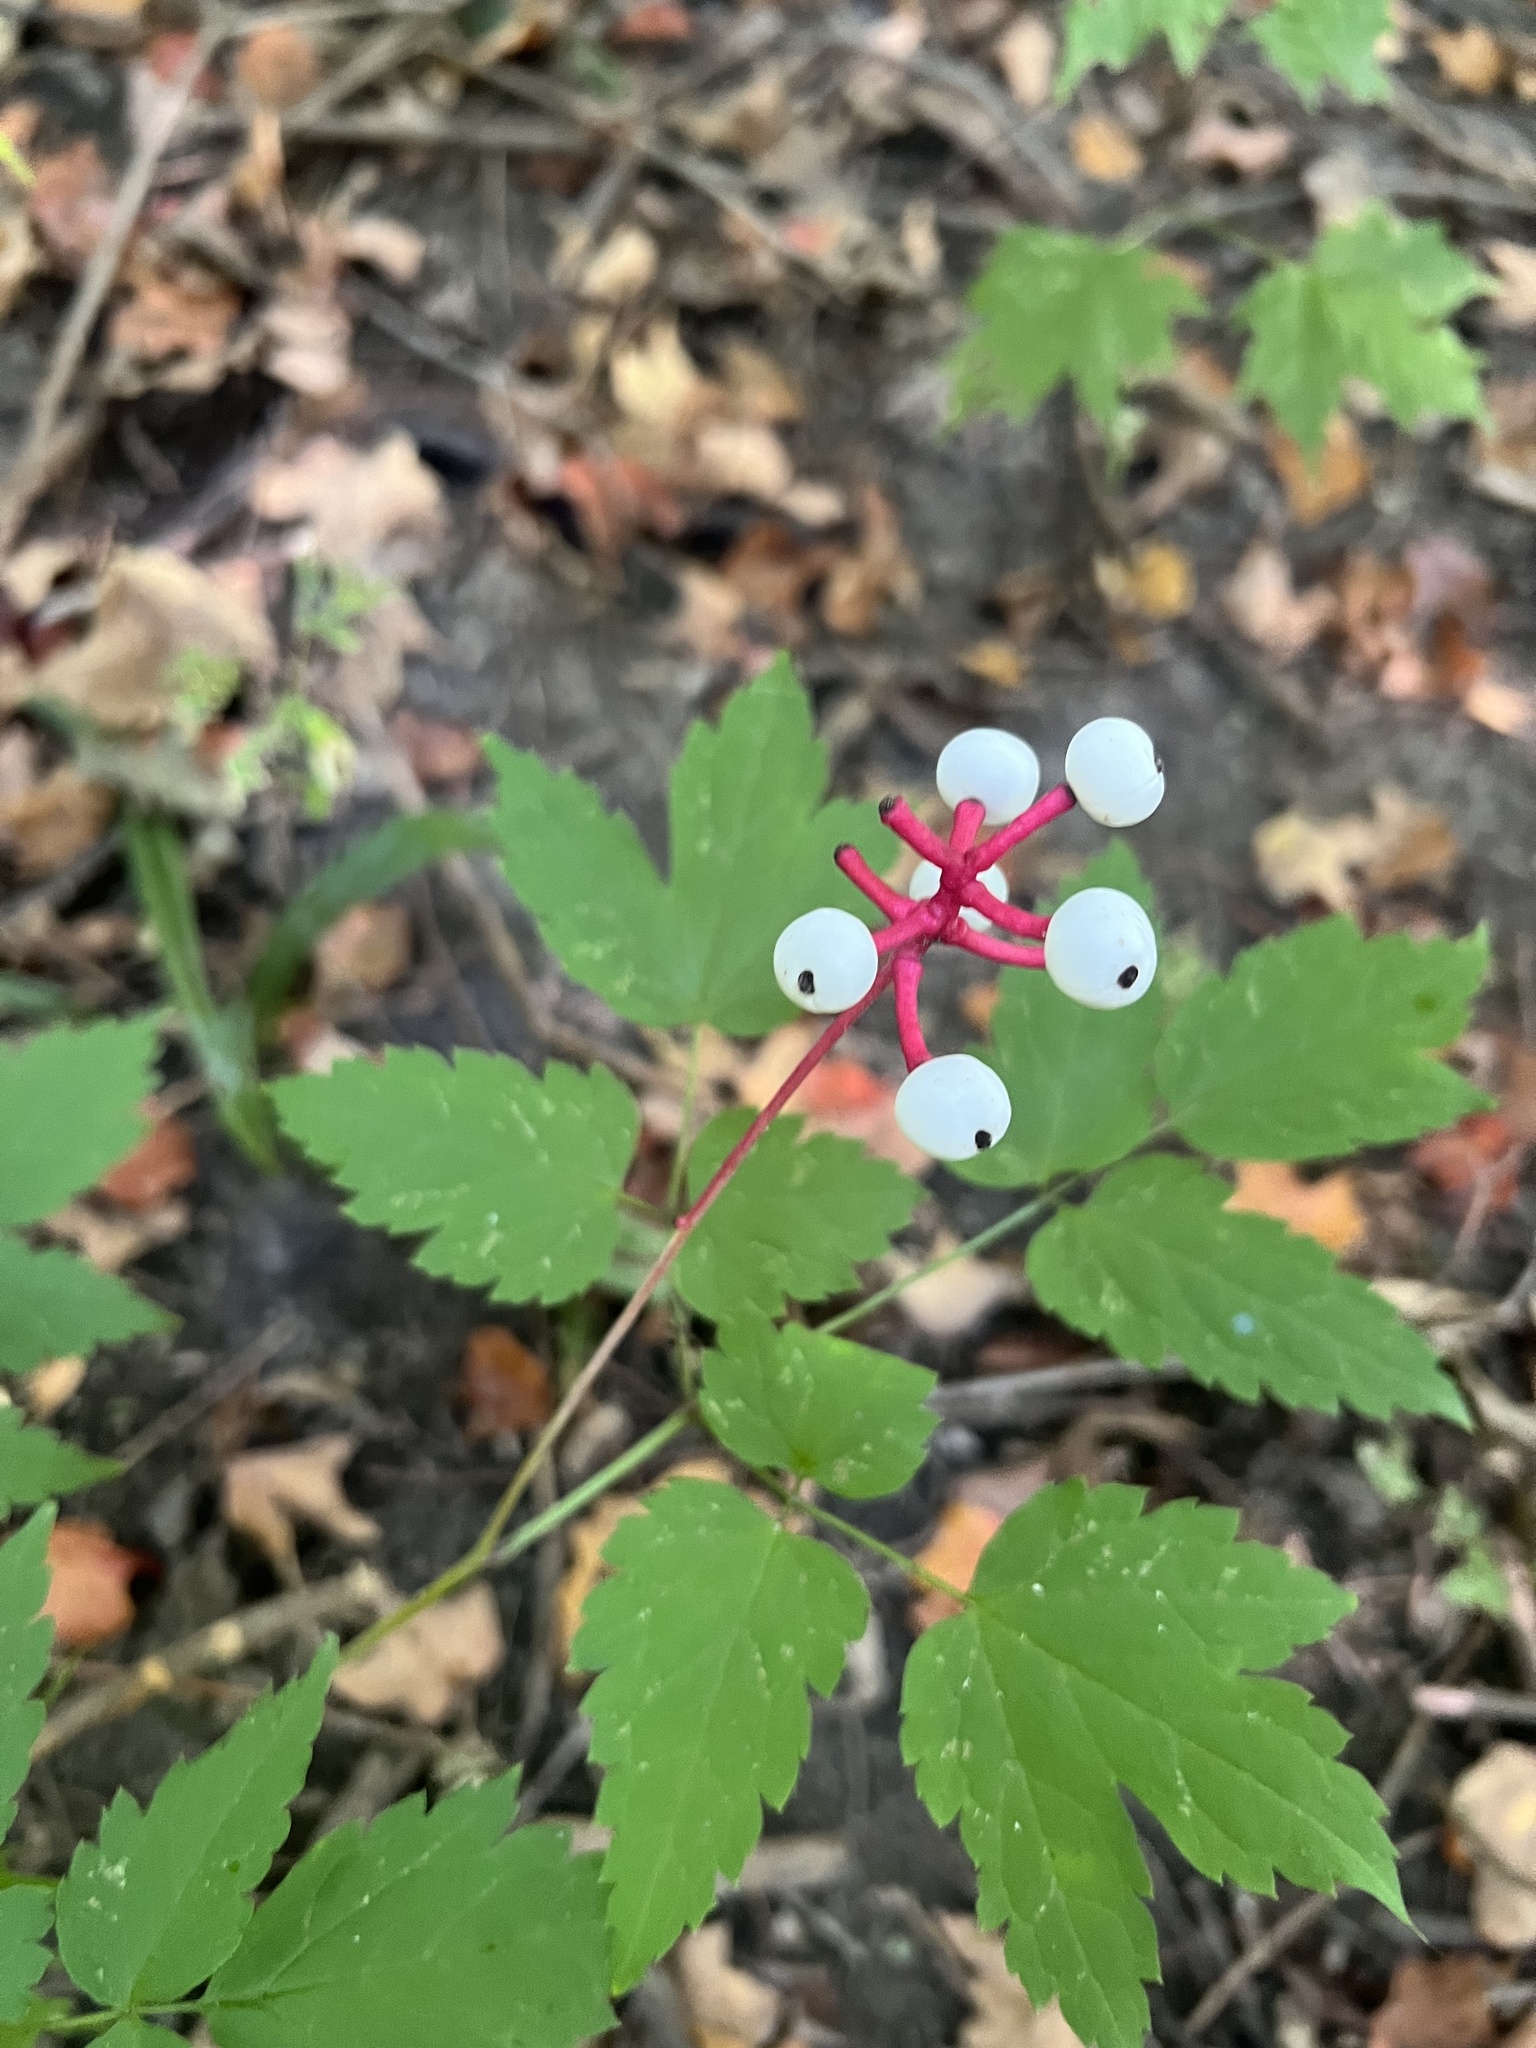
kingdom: Plantae
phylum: Tracheophyta
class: Magnoliopsida
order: Ranunculales
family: Ranunculaceae
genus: Actaea
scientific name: Actaea pachypoda
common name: Doll's-eyes
